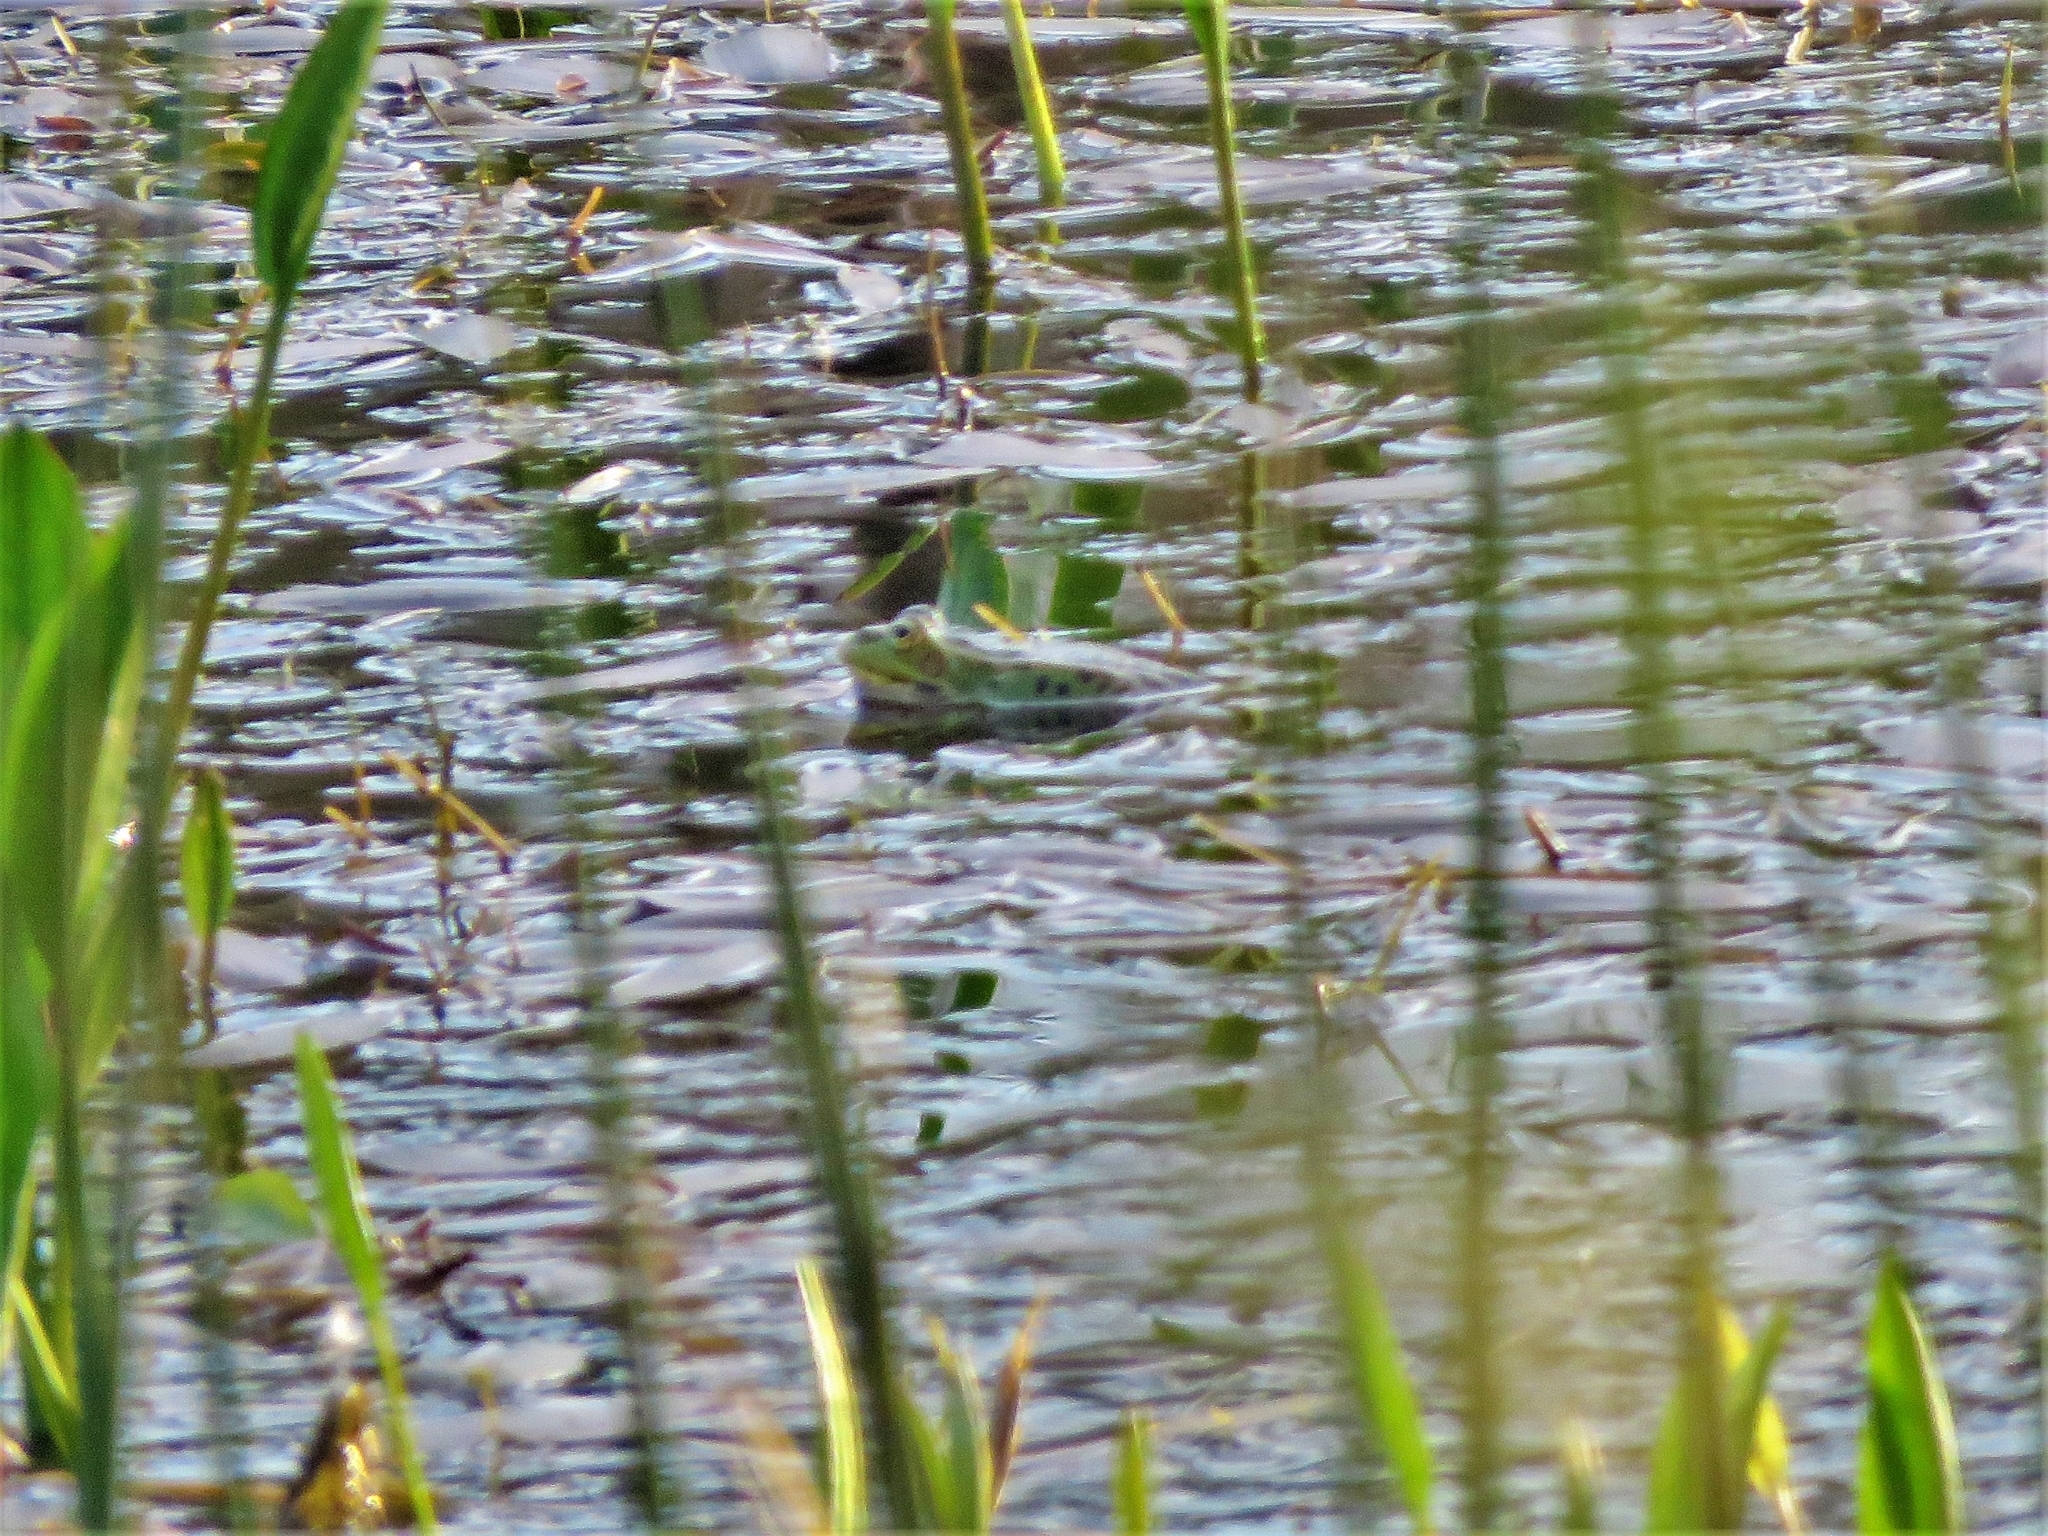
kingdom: Animalia
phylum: Chordata
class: Amphibia
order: Anura
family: Ranidae
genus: Pelophylax
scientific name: Pelophylax perezi
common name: Perez's frog
